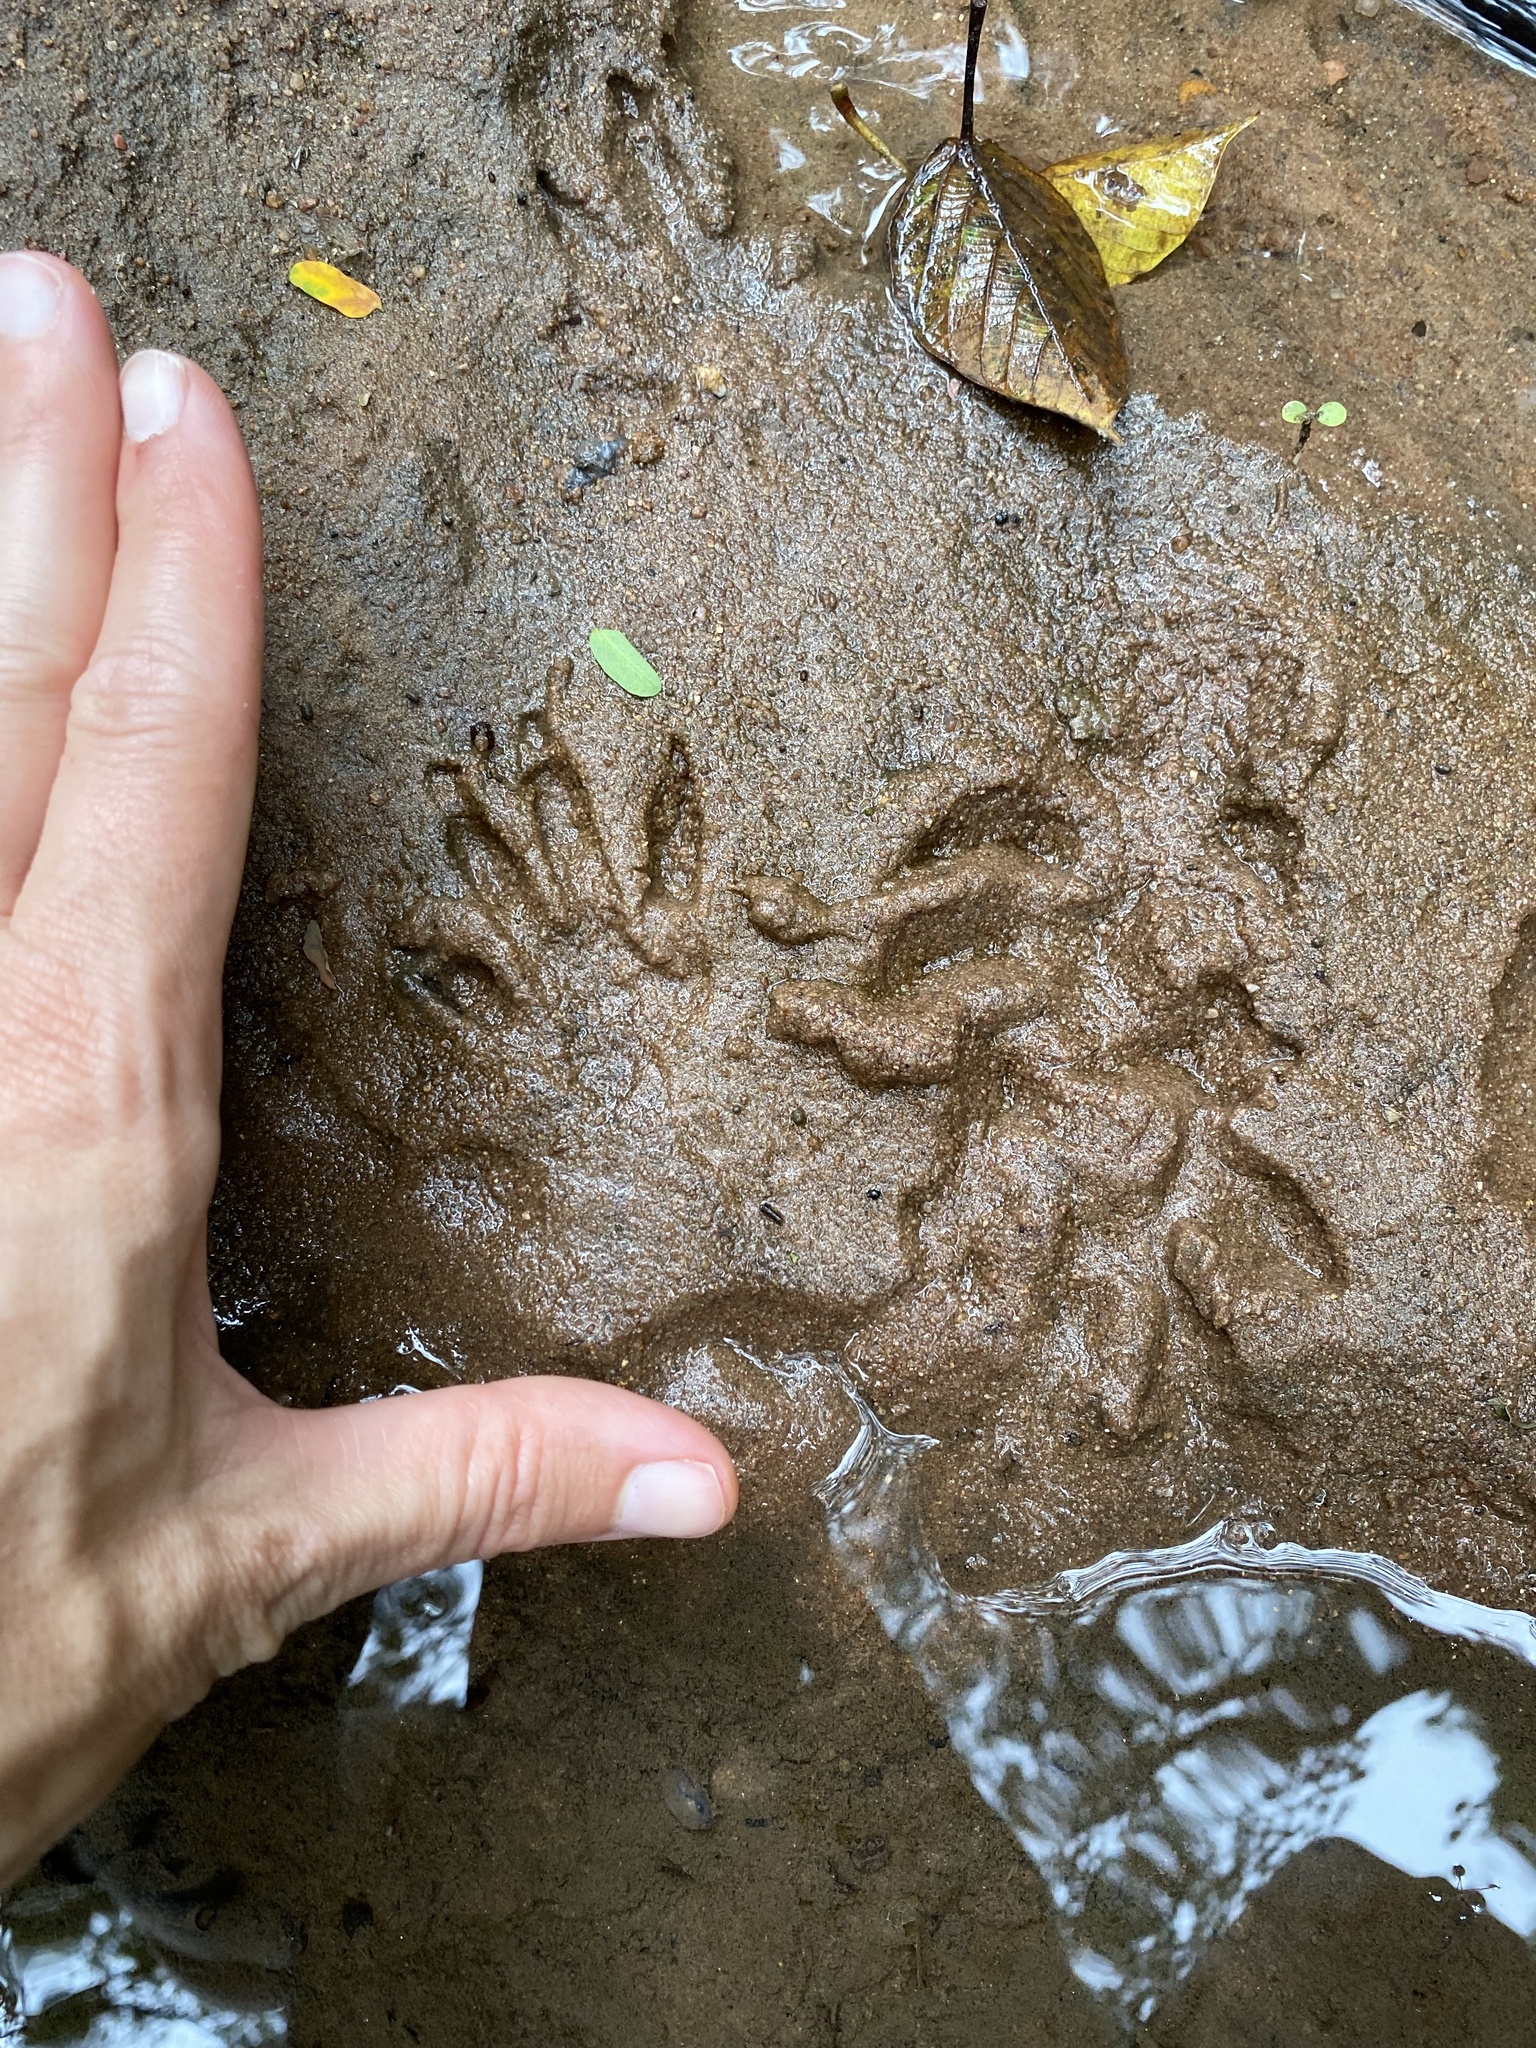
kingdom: Animalia
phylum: Chordata
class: Mammalia
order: Carnivora
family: Herpestidae
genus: Atilax
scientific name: Atilax paludinosus
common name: Marsh mongoose
